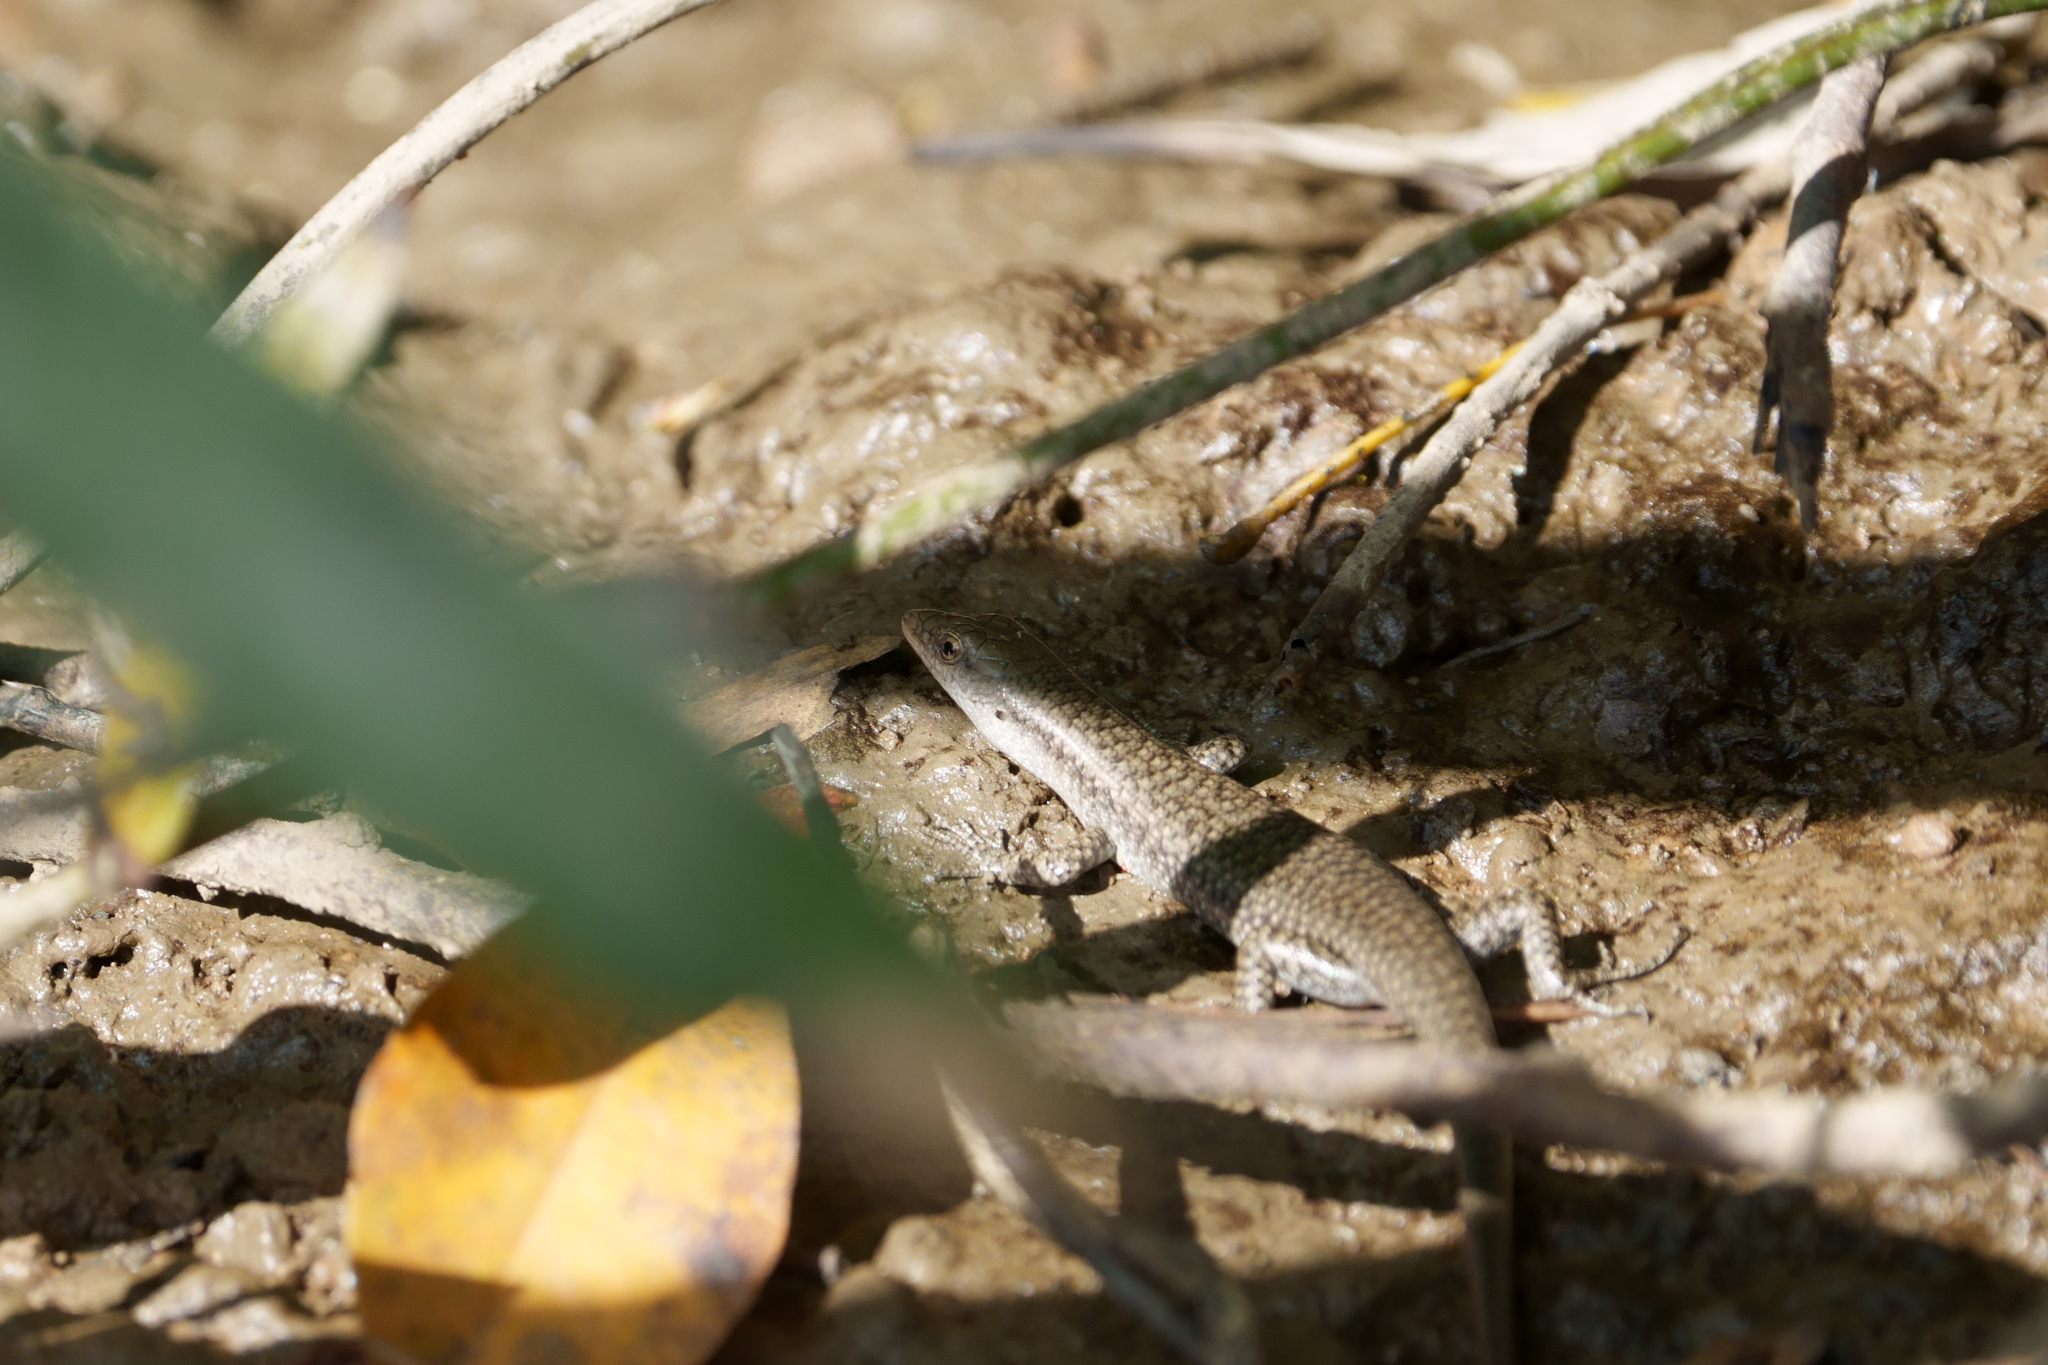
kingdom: Animalia
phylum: Chordata
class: Squamata
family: Scincidae
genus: Emoia
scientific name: Emoia atrocostata
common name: Littoral skink
